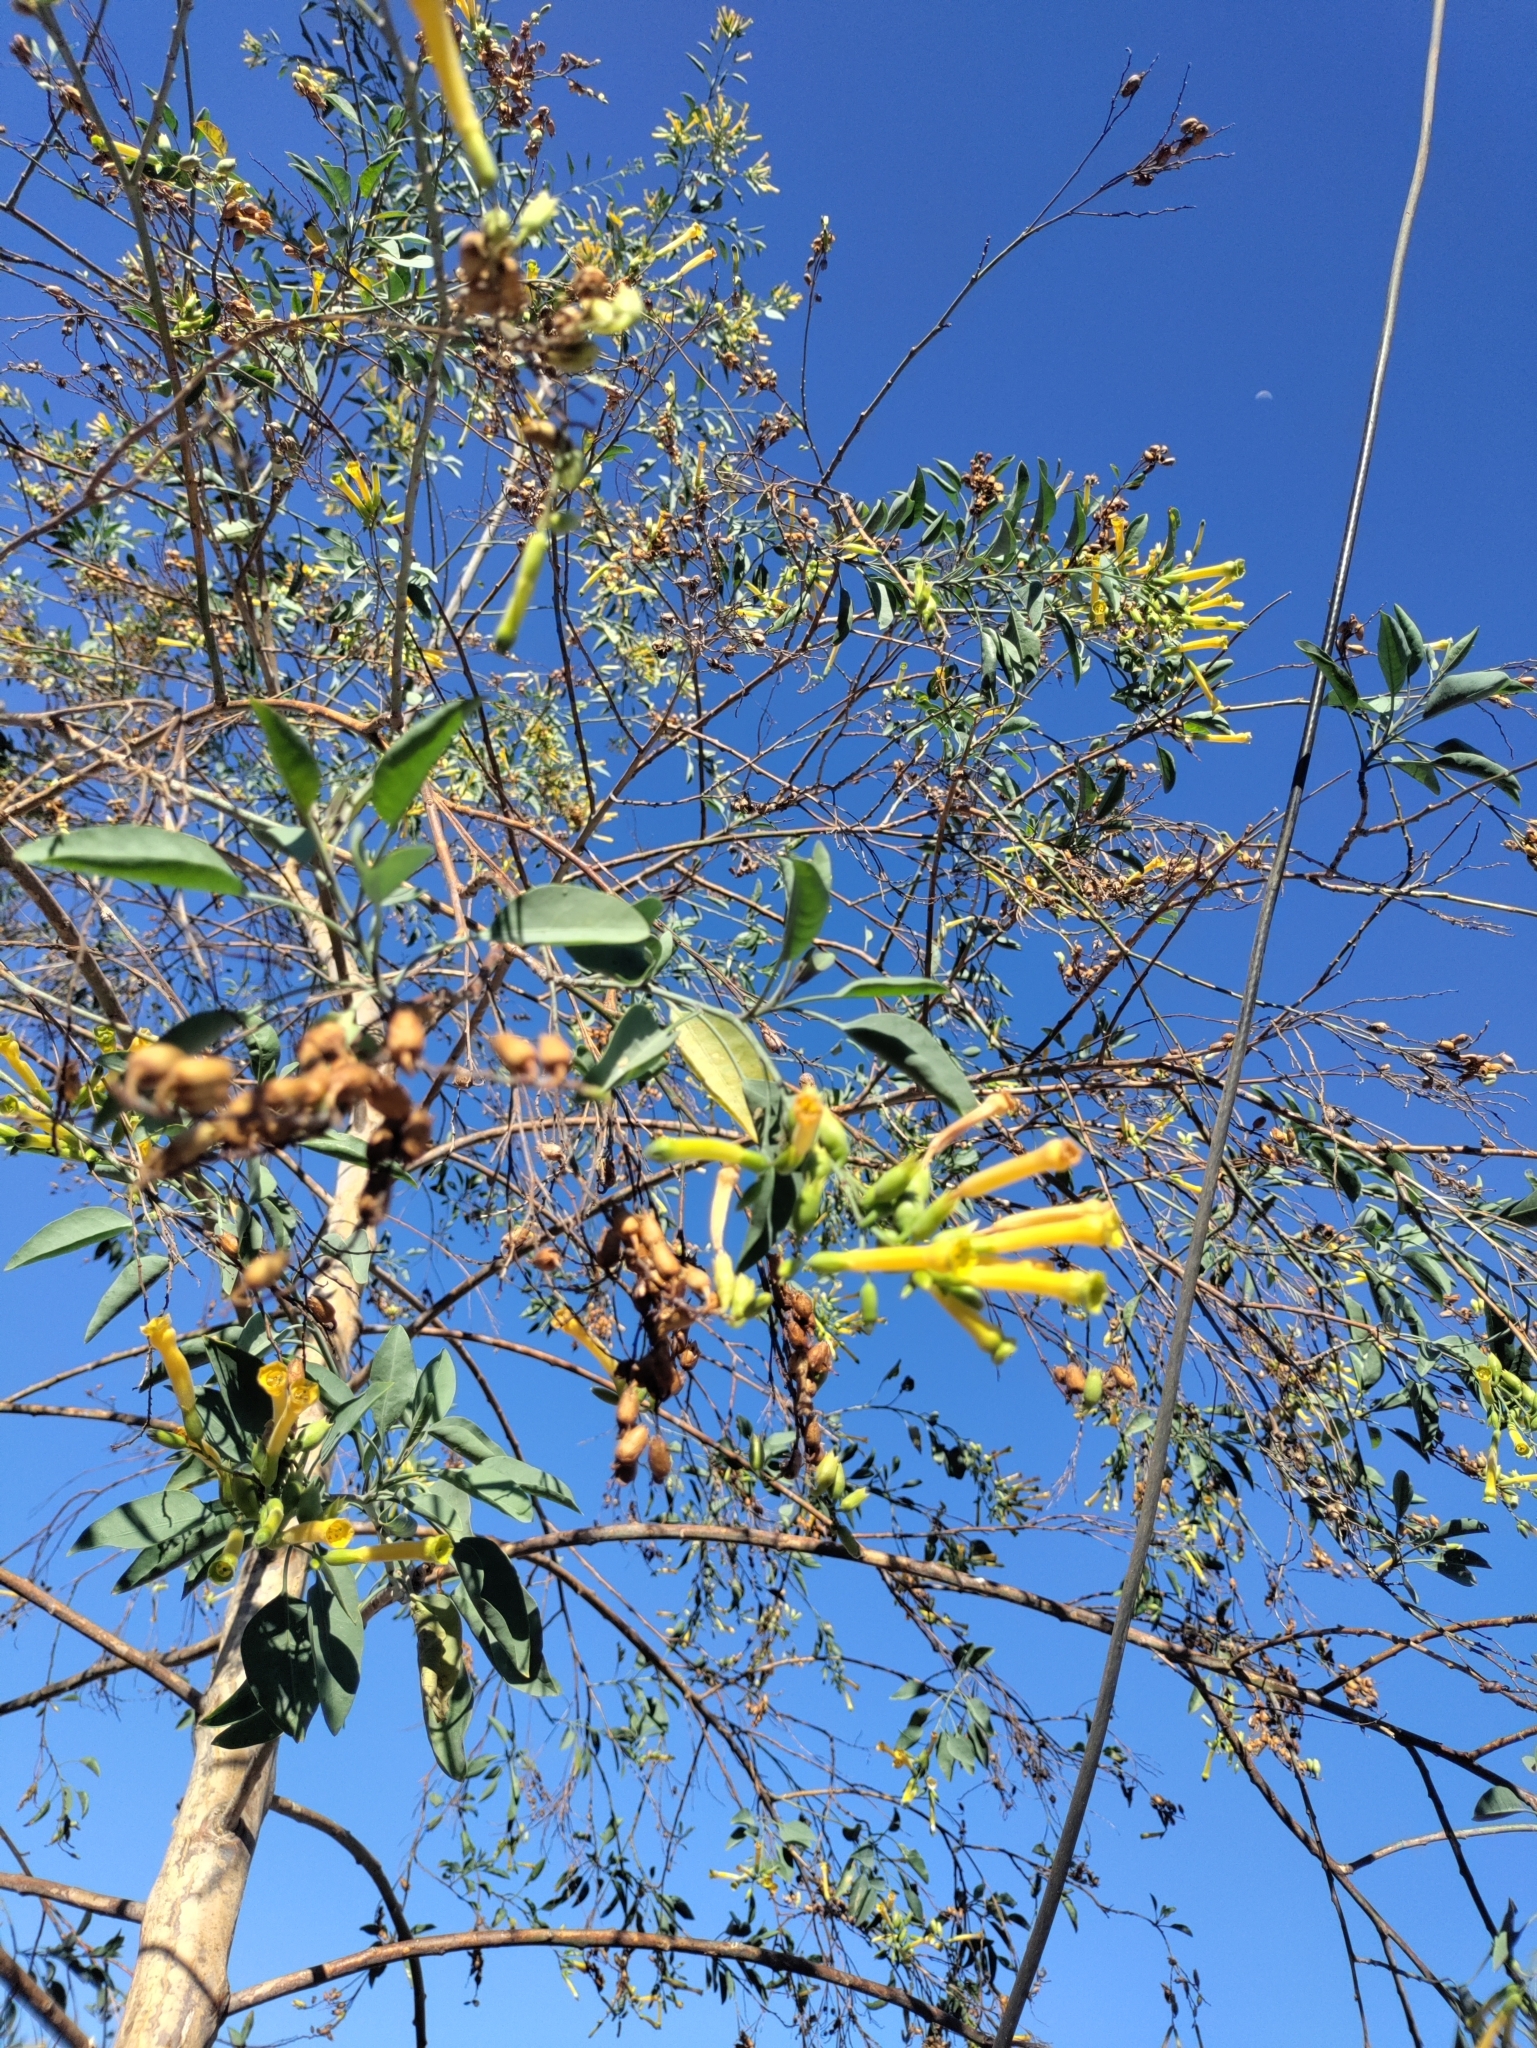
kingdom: Plantae
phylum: Tracheophyta
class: Magnoliopsida
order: Solanales
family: Solanaceae
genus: Nicotiana
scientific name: Nicotiana glauca
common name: Tree tobacco
